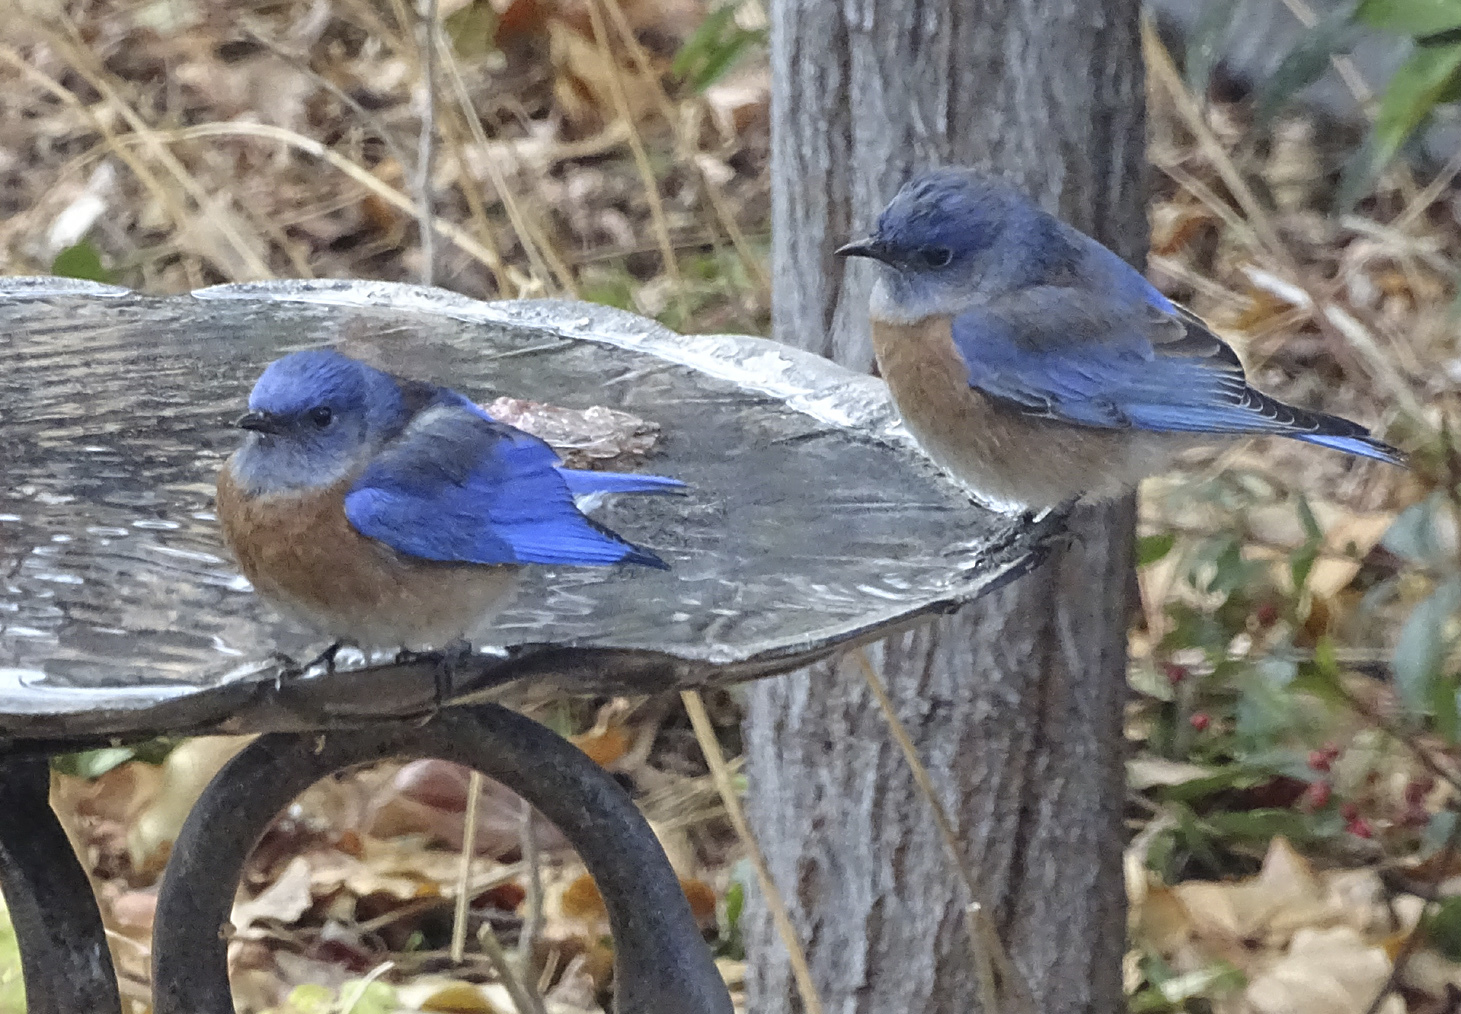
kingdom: Animalia
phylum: Chordata
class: Aves
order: Passeriformes
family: Turdidae
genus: Sialia
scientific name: Sialia mexicana
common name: Western bluebird
